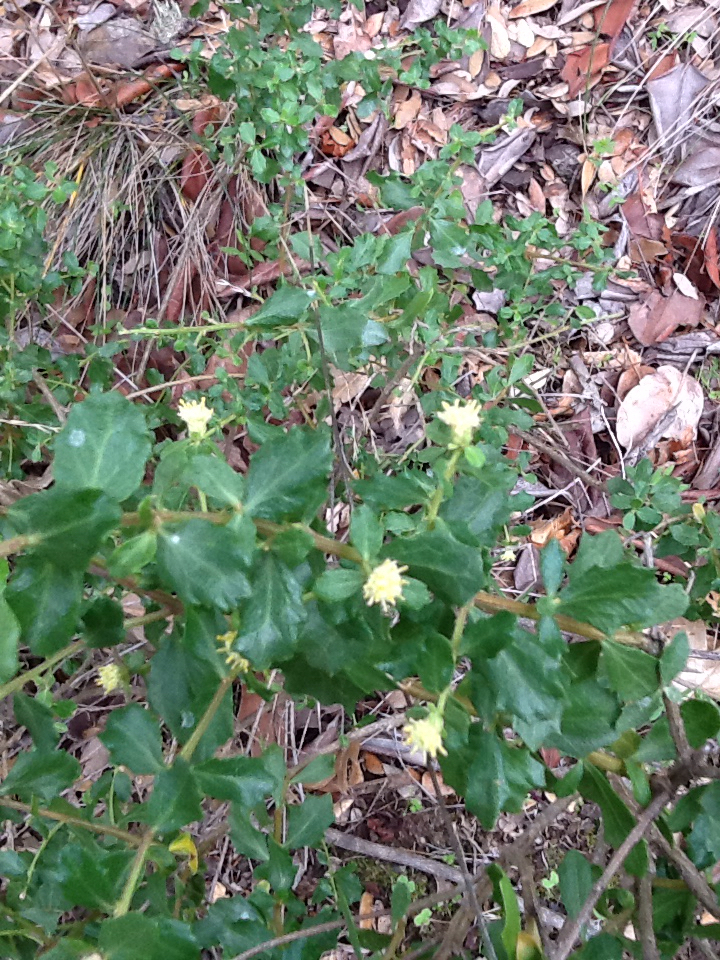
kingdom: Plantae
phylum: Tracheophyta
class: Magnoliopsida
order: Asterales
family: Asteraceae
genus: Baccharis
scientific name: Baccharis pilularis
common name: Coyotebrush
